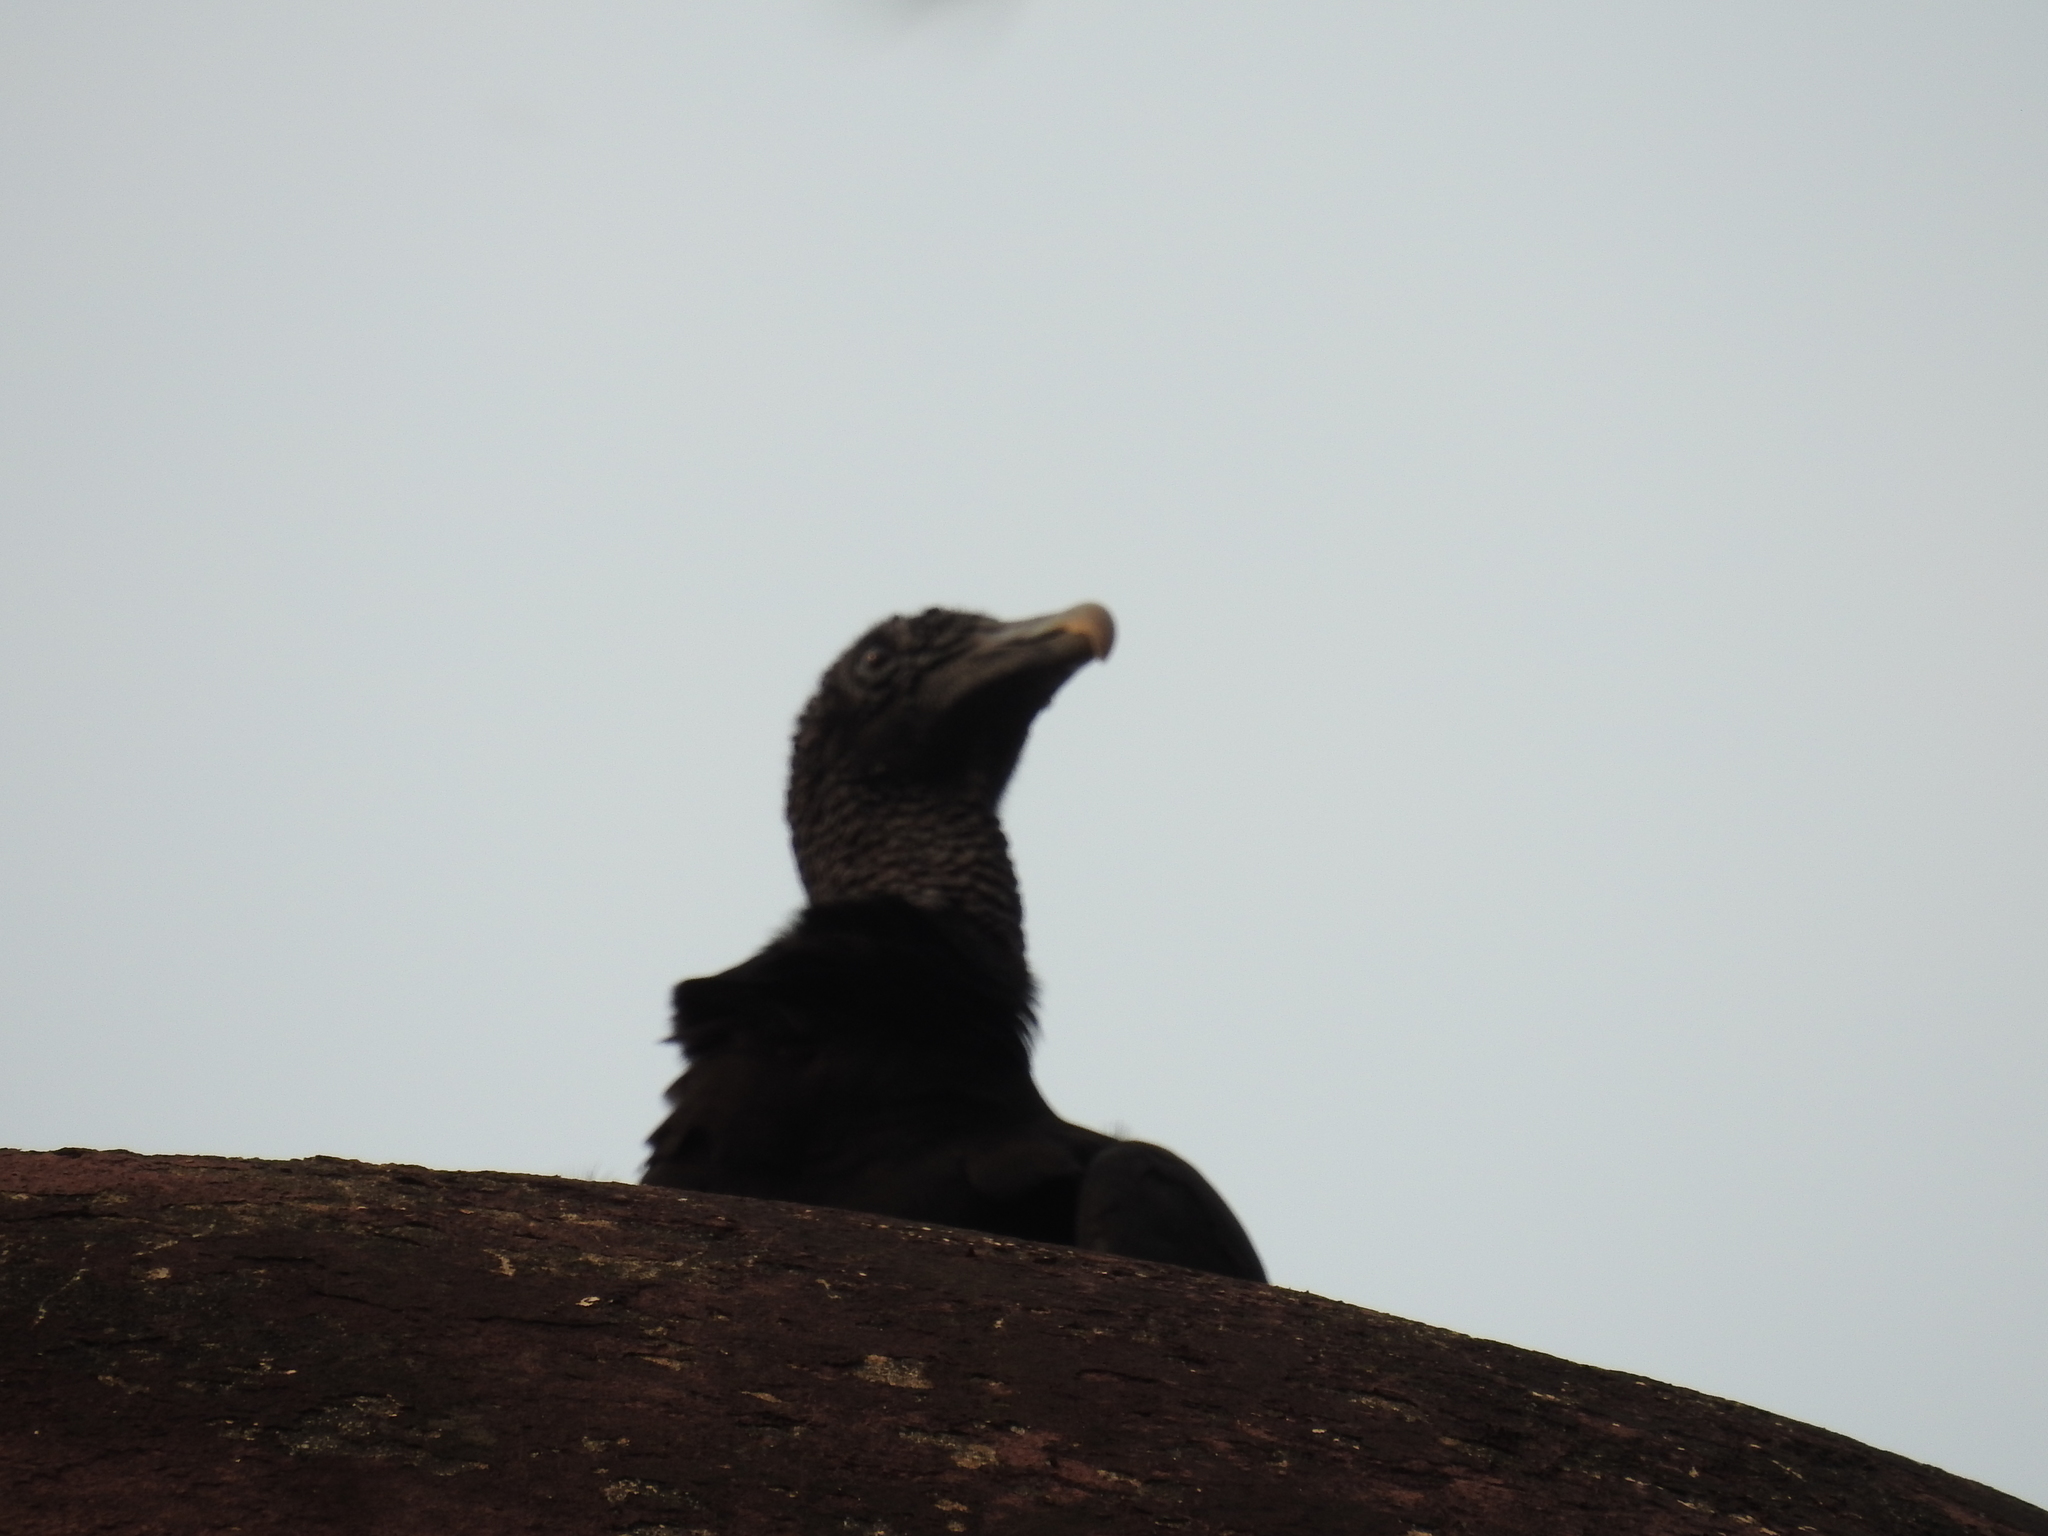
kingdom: Animalia
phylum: Chordata
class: Aves
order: Accipitriformes
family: Cathartidae
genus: Coragyps
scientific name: Coragyps atratus
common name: Black vulture
